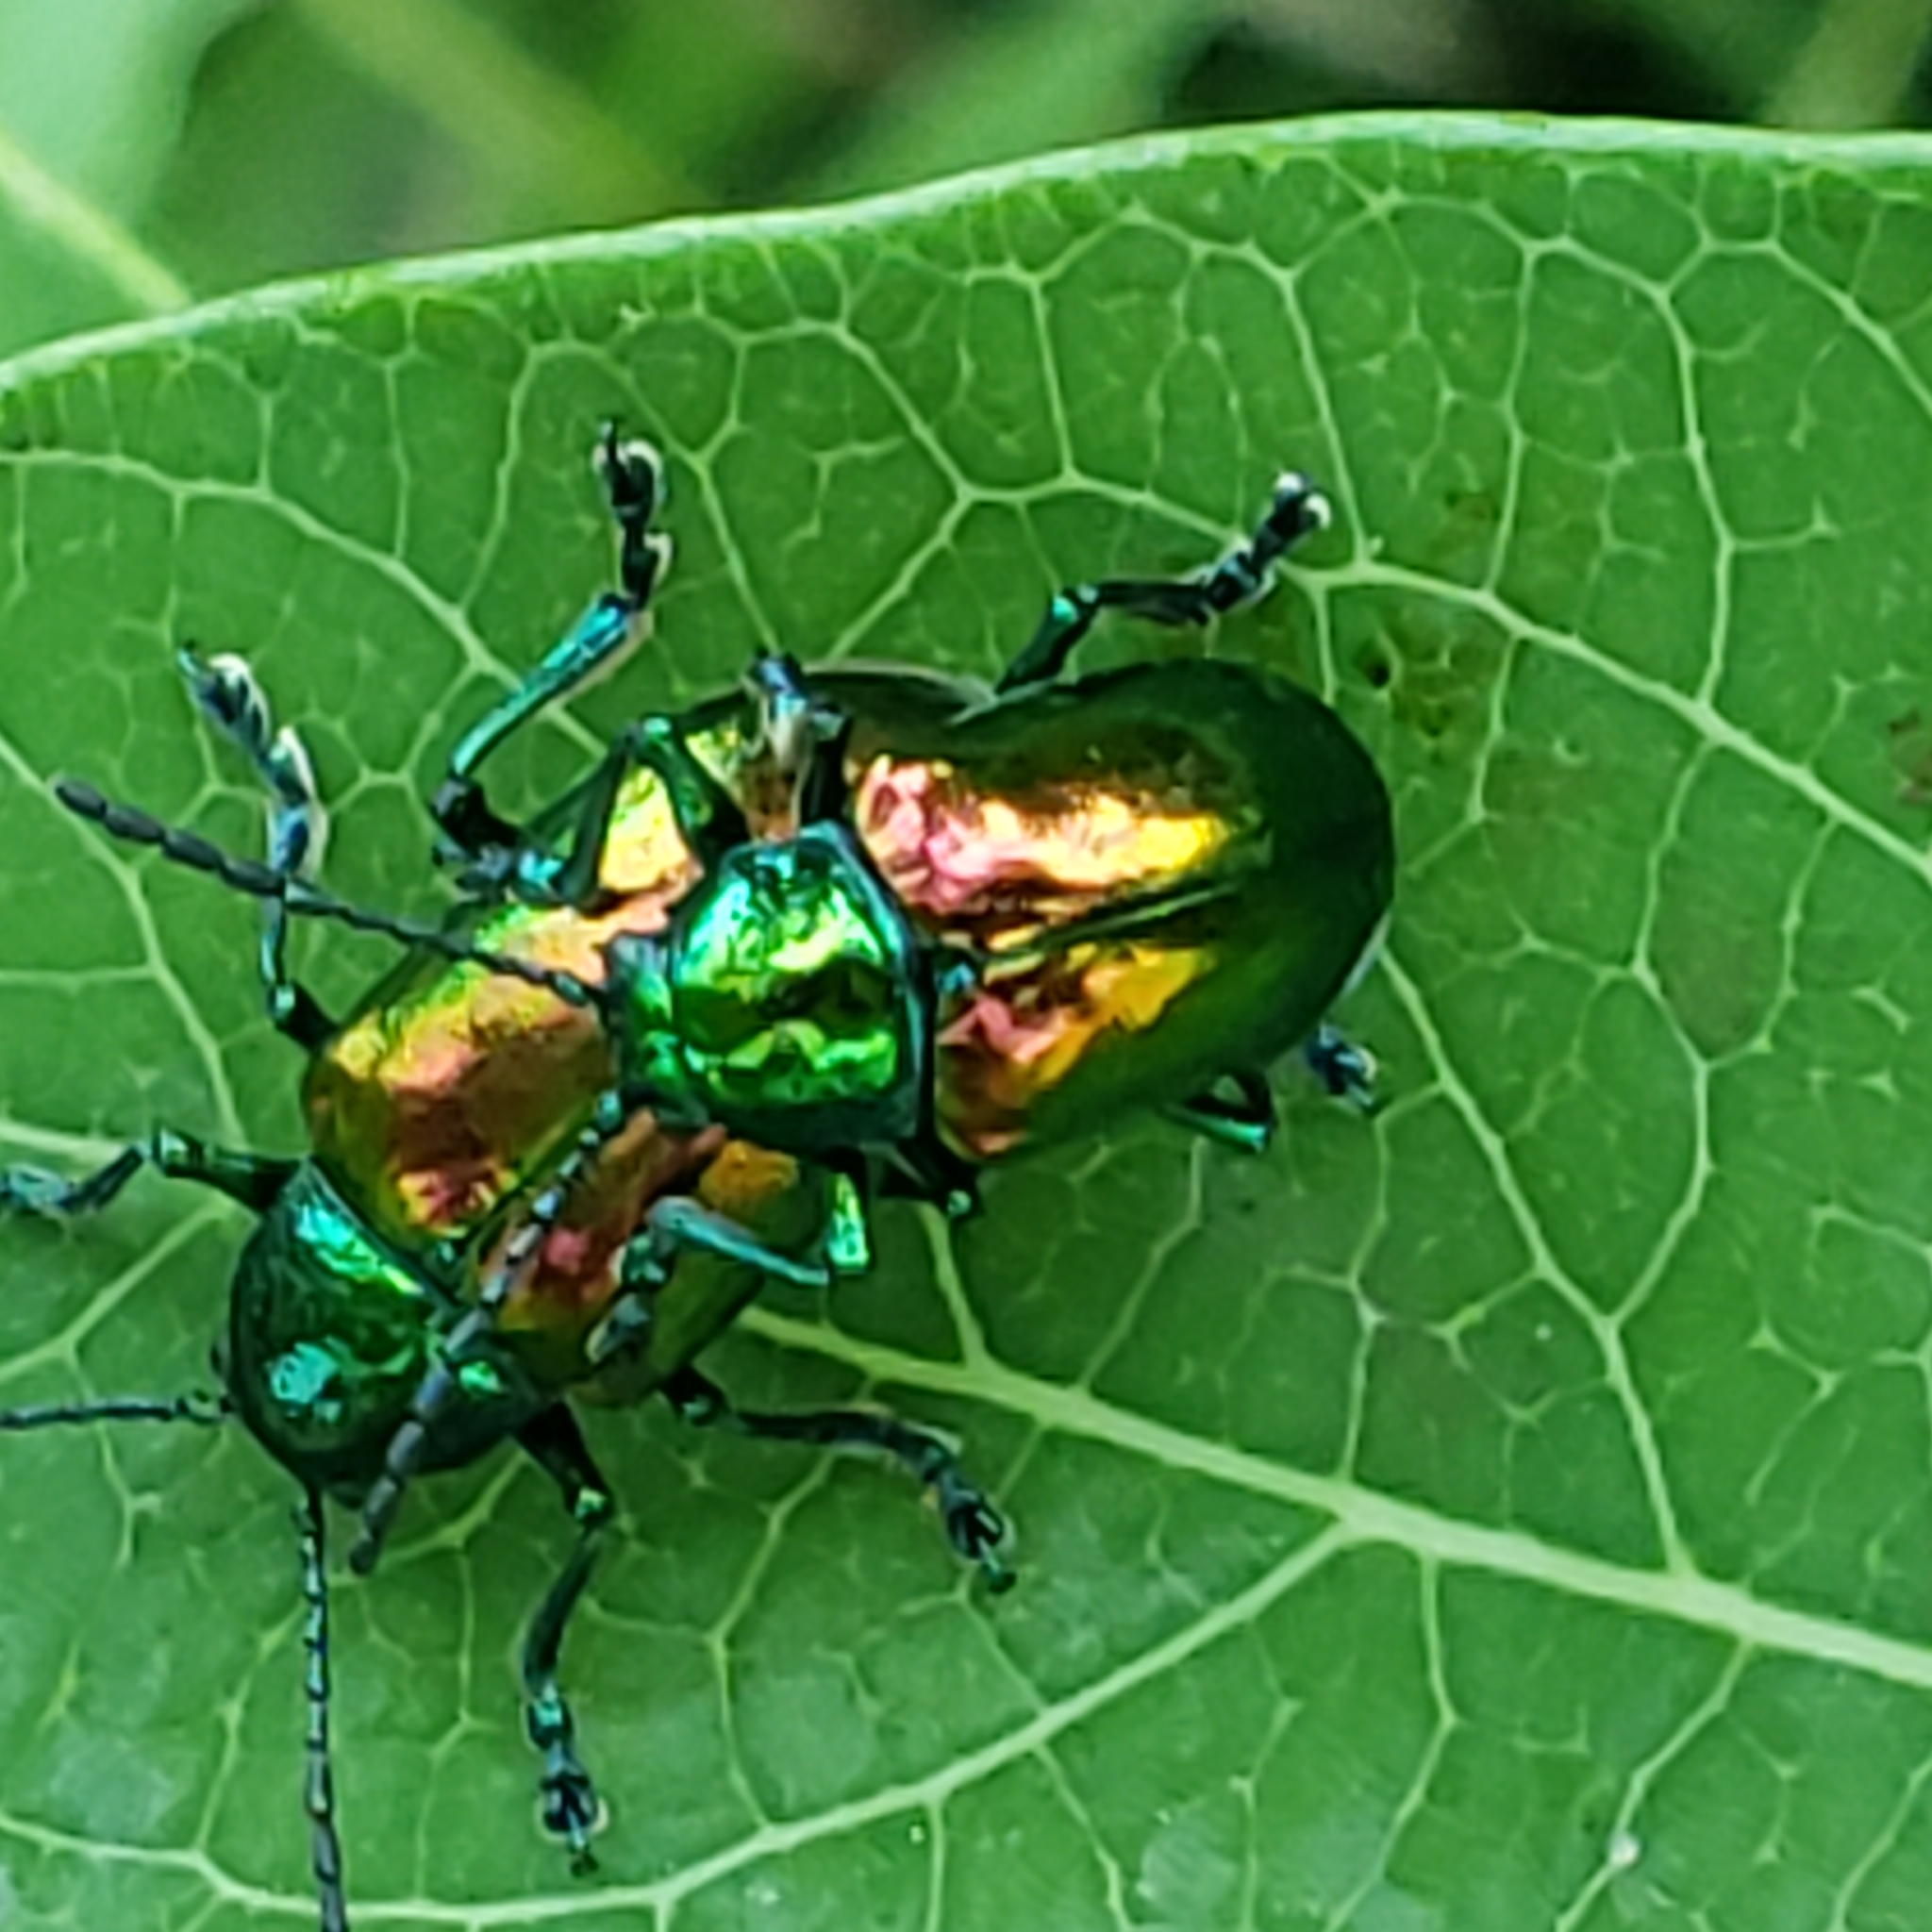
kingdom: Animalia
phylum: Arthropoda
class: Insecta
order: Coleoptera
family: Chrysomelidae
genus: Chrysochus
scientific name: Chrysochus auratus
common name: Dogbane leaf beetle
